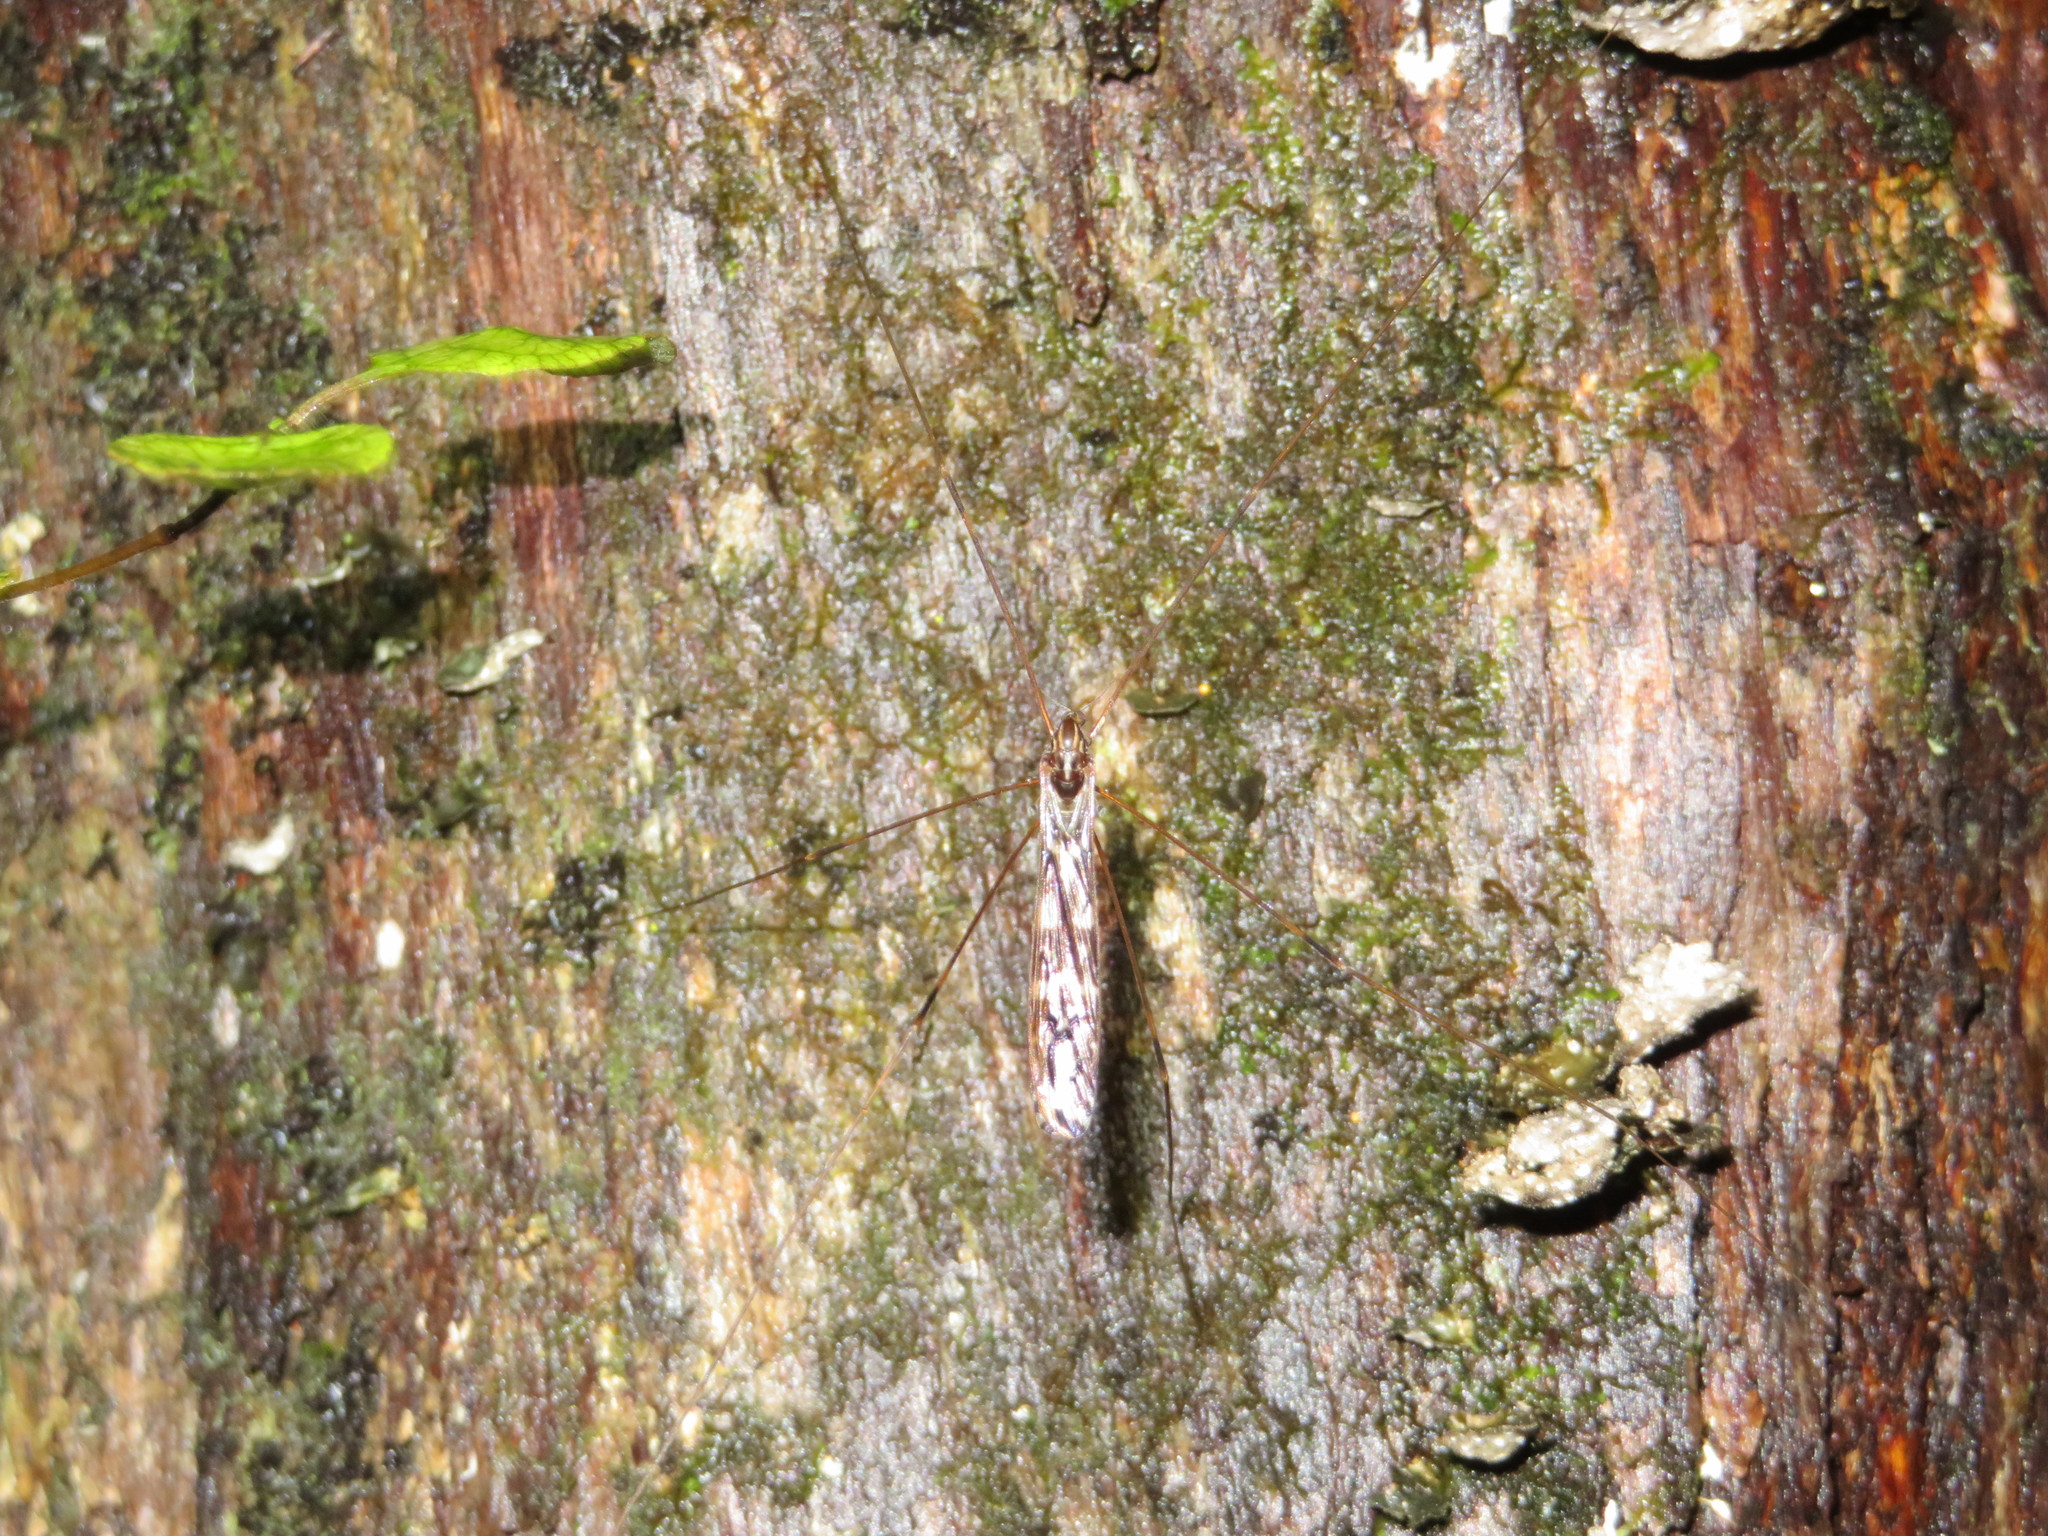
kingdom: Animalia
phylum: Arthropoda
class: Insecta
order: Diptera
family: Limoniidae
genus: Discobola
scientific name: Discobola dohrni
